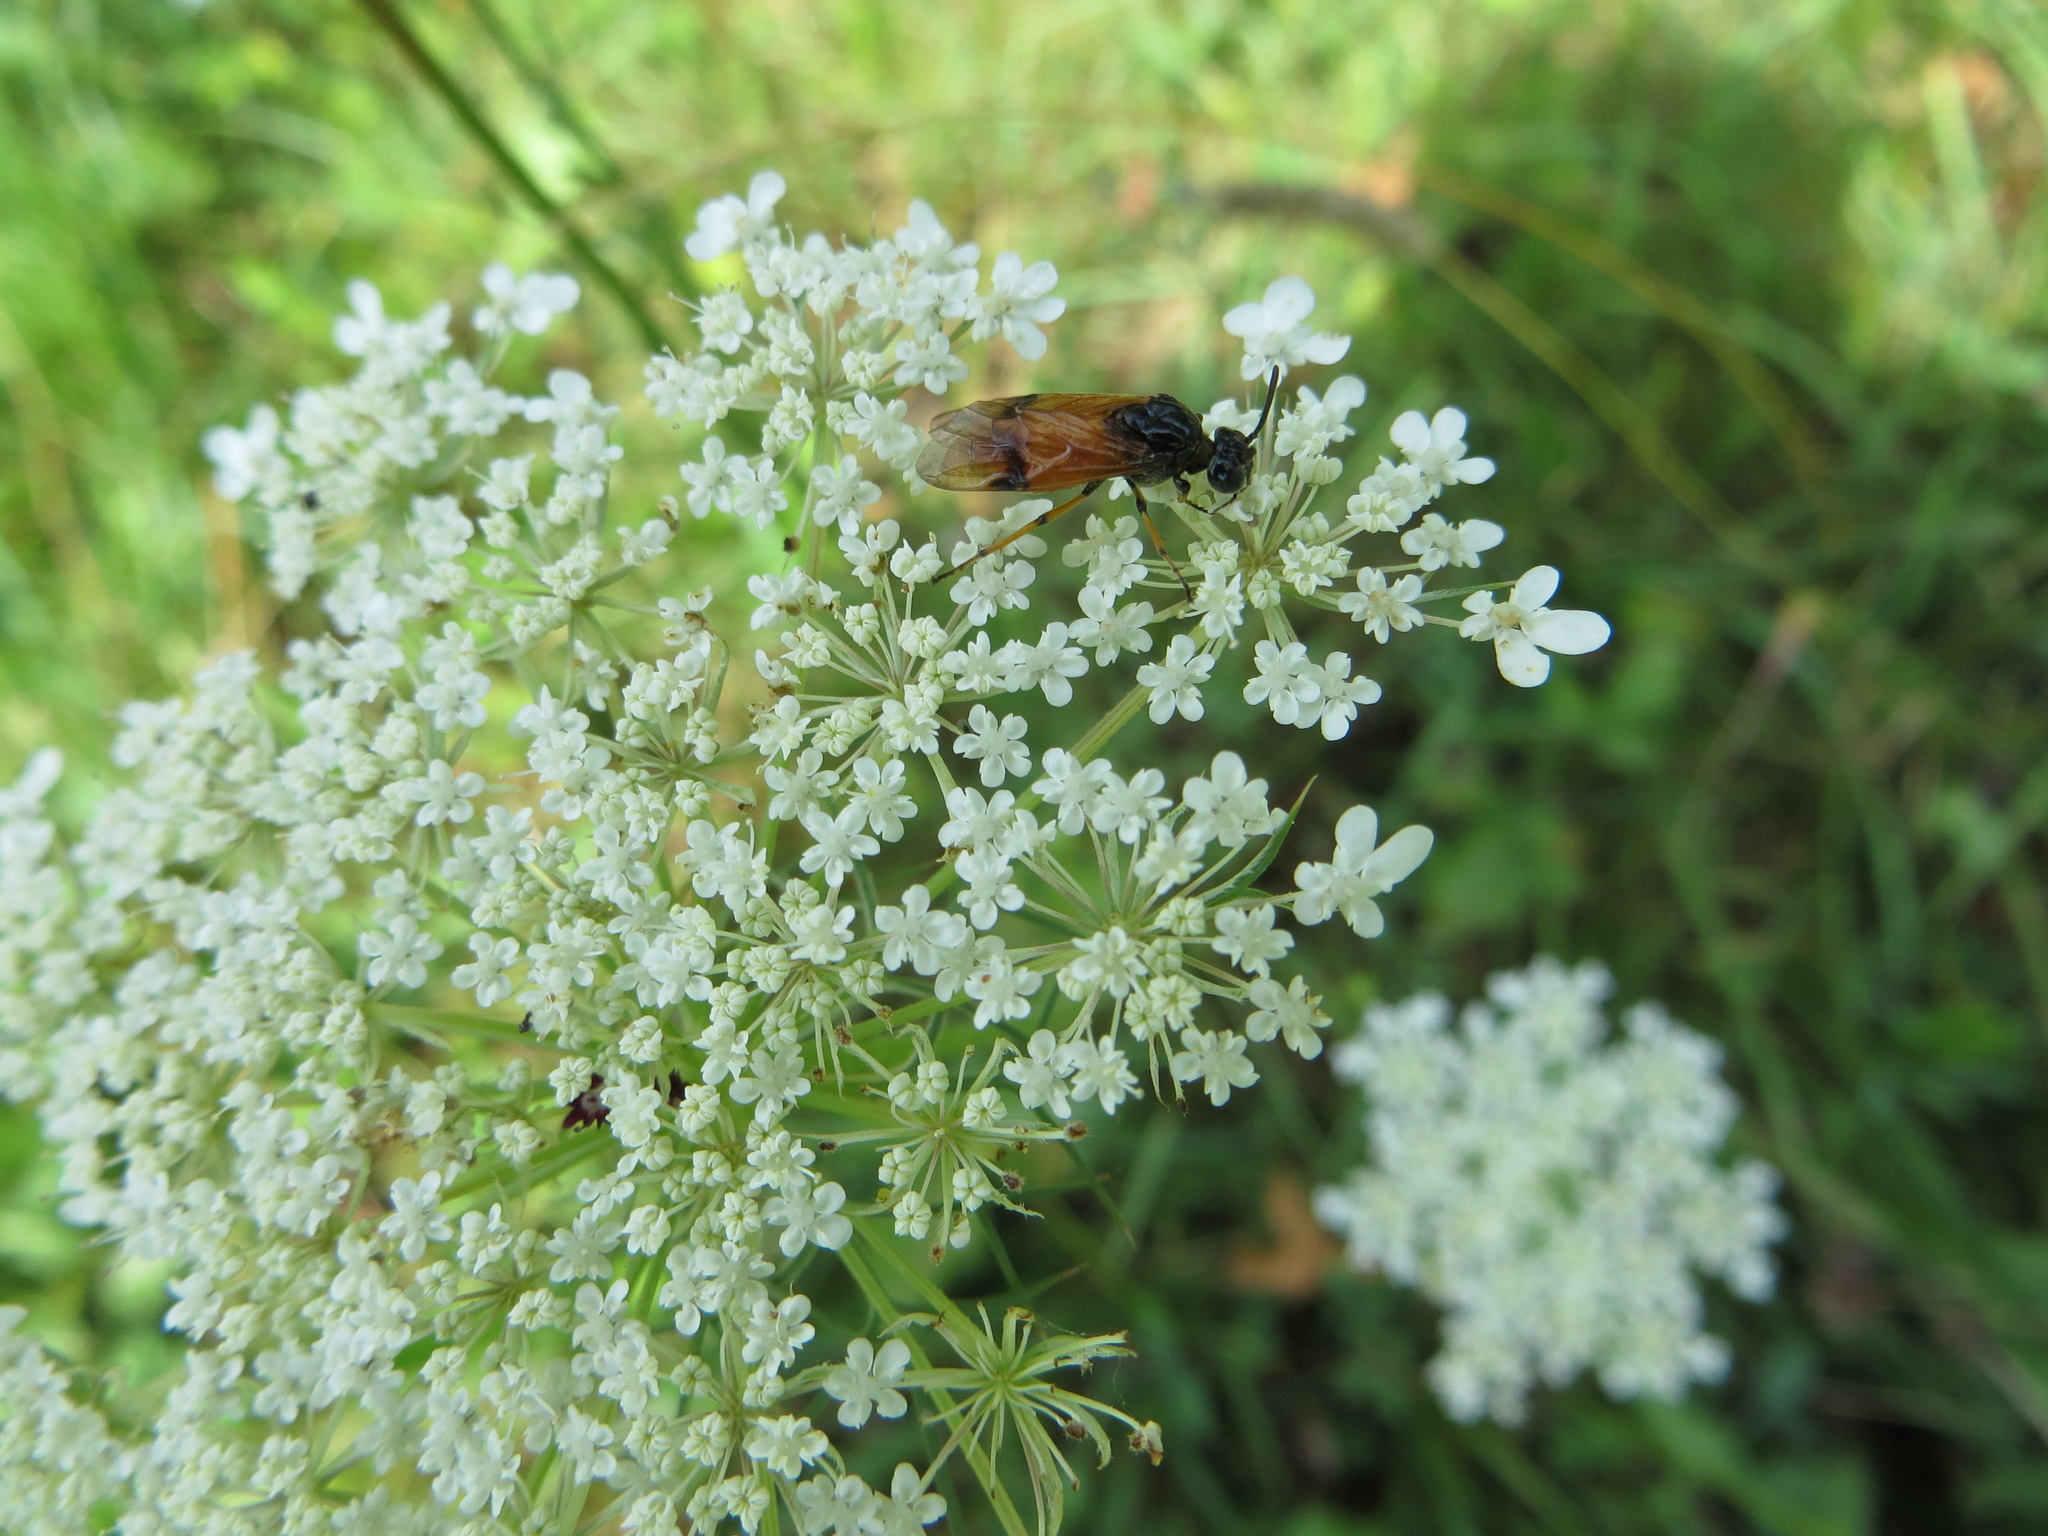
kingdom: Animalia
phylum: Arthropoda
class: Insecta
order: Hymenoptera
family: Argidae
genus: Arge
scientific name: Arge cyanocrocea
